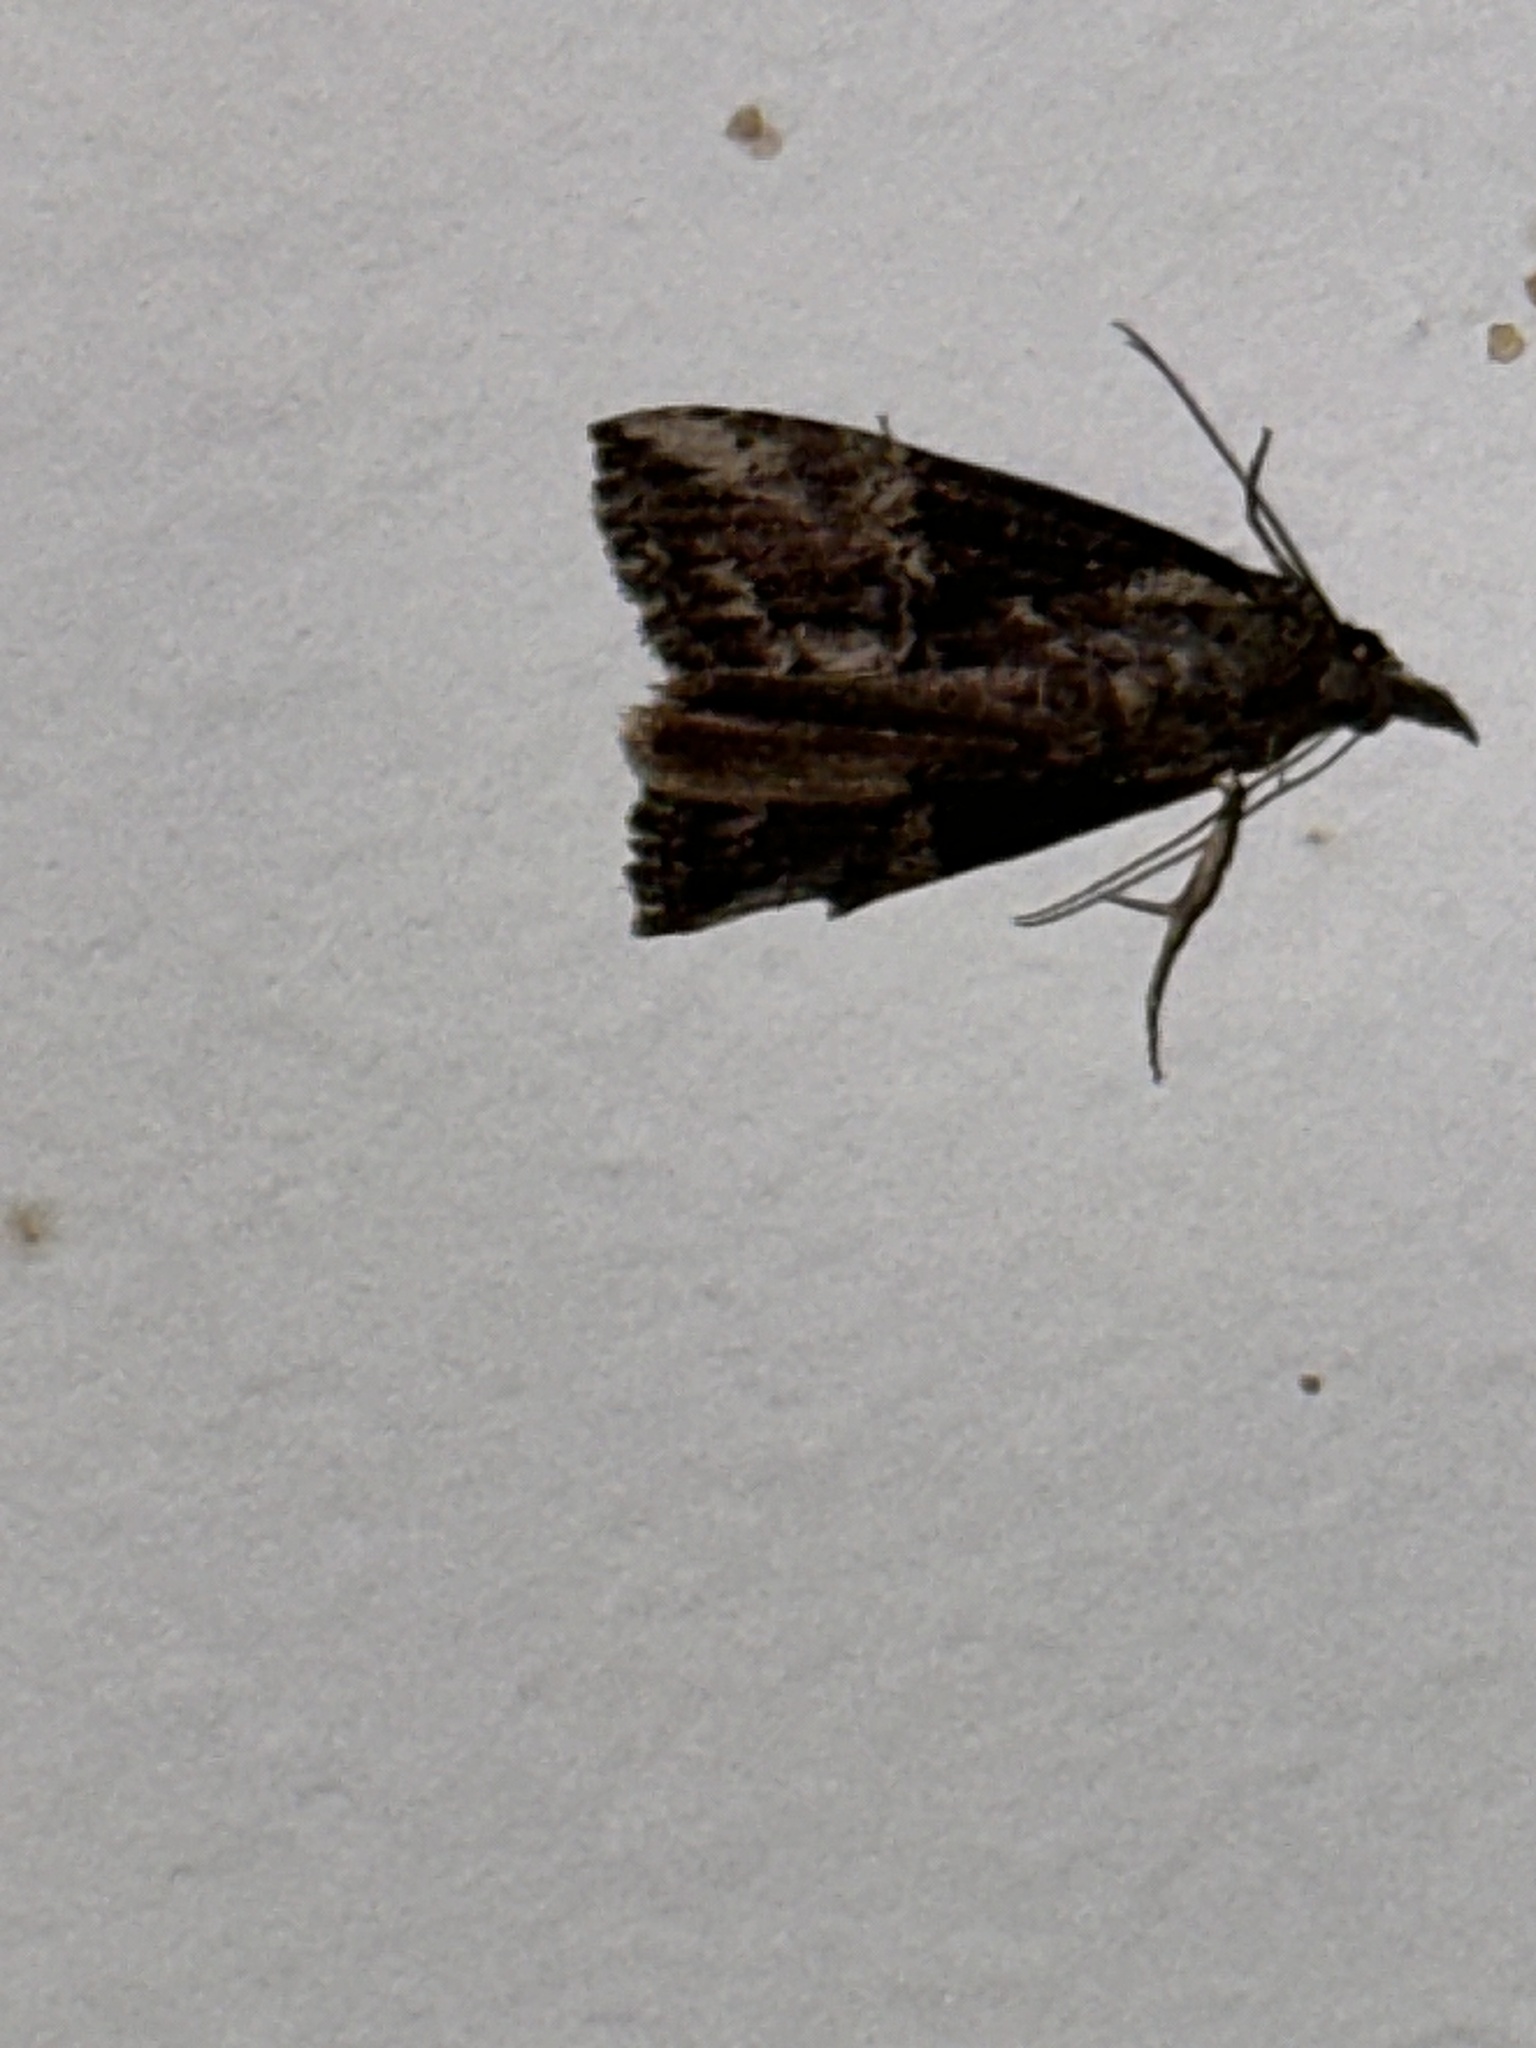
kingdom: Animalia
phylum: Arthropoda
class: Insecta
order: Lepidoptera
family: Erebidae
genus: Hypena
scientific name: Hypena scabra
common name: Green cloverworm
